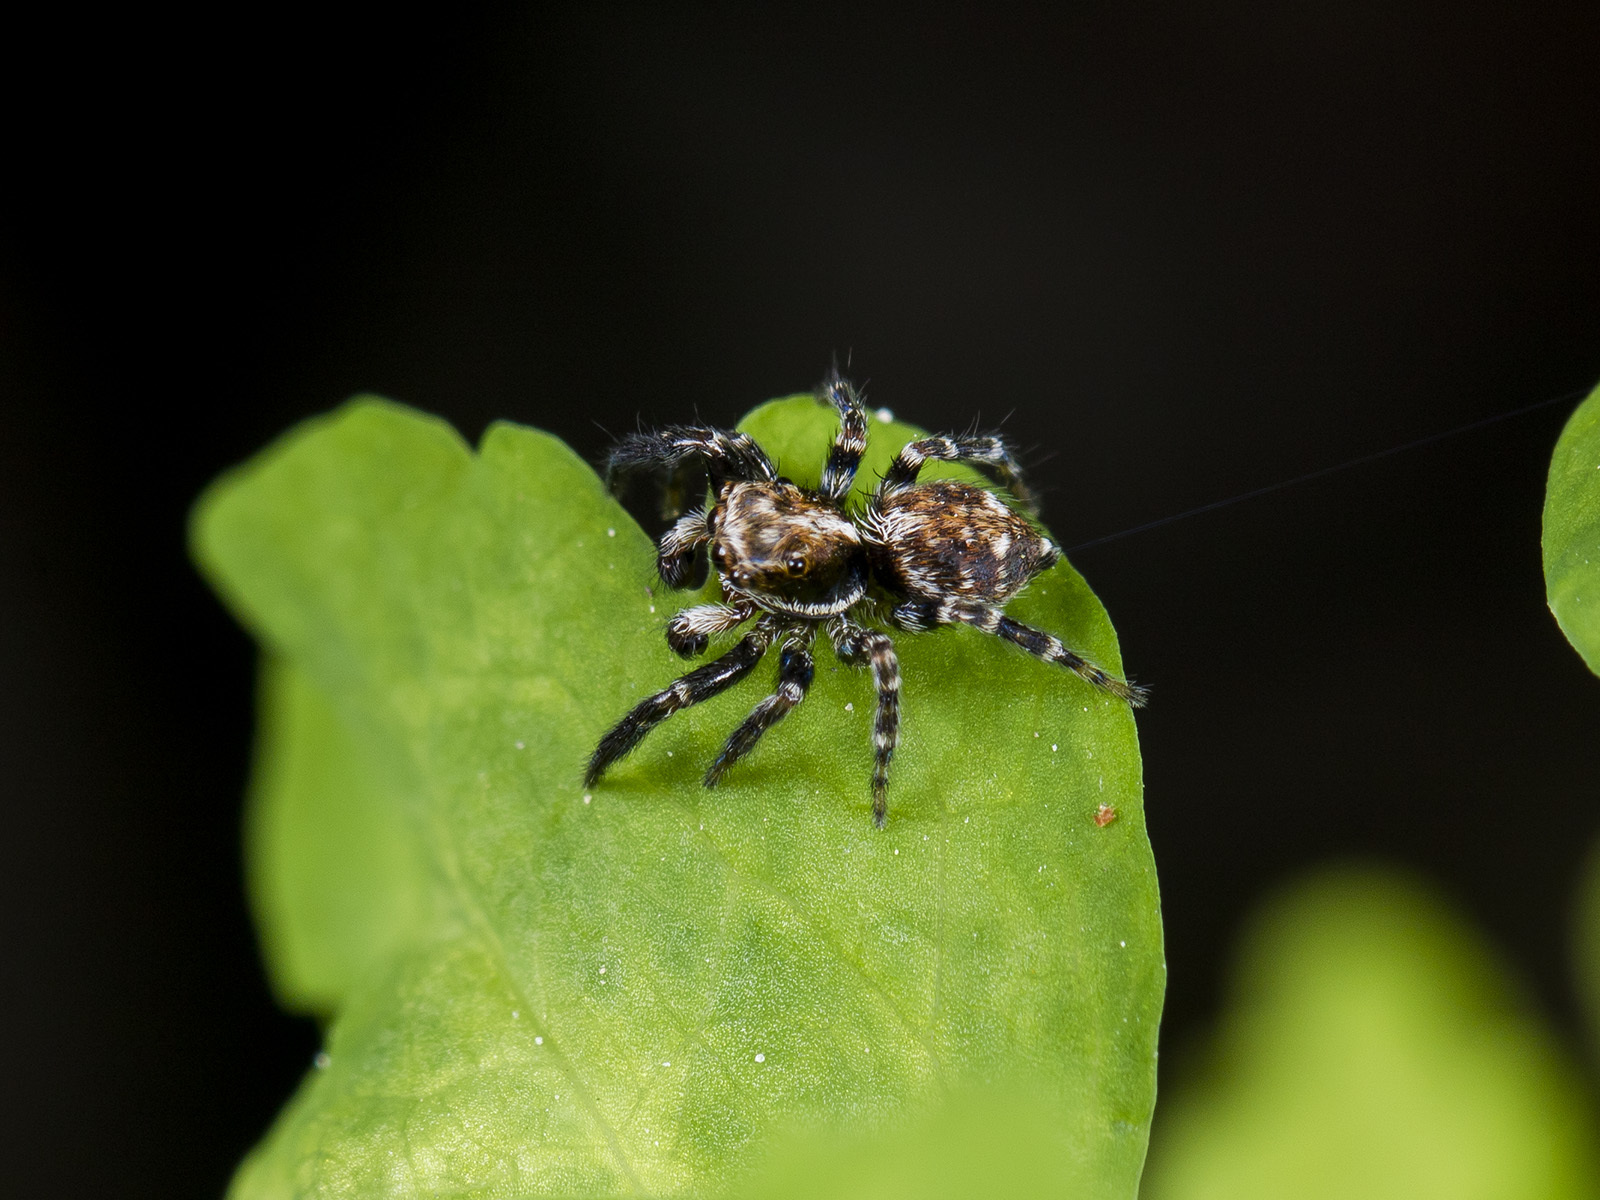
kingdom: Animalia
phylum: Arthropoda
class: Arachnida
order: Araneae
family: Salticidae
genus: Pseudeuophrys
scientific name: Pseudeuophrys obsoleta
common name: Whelk-shell jumper
